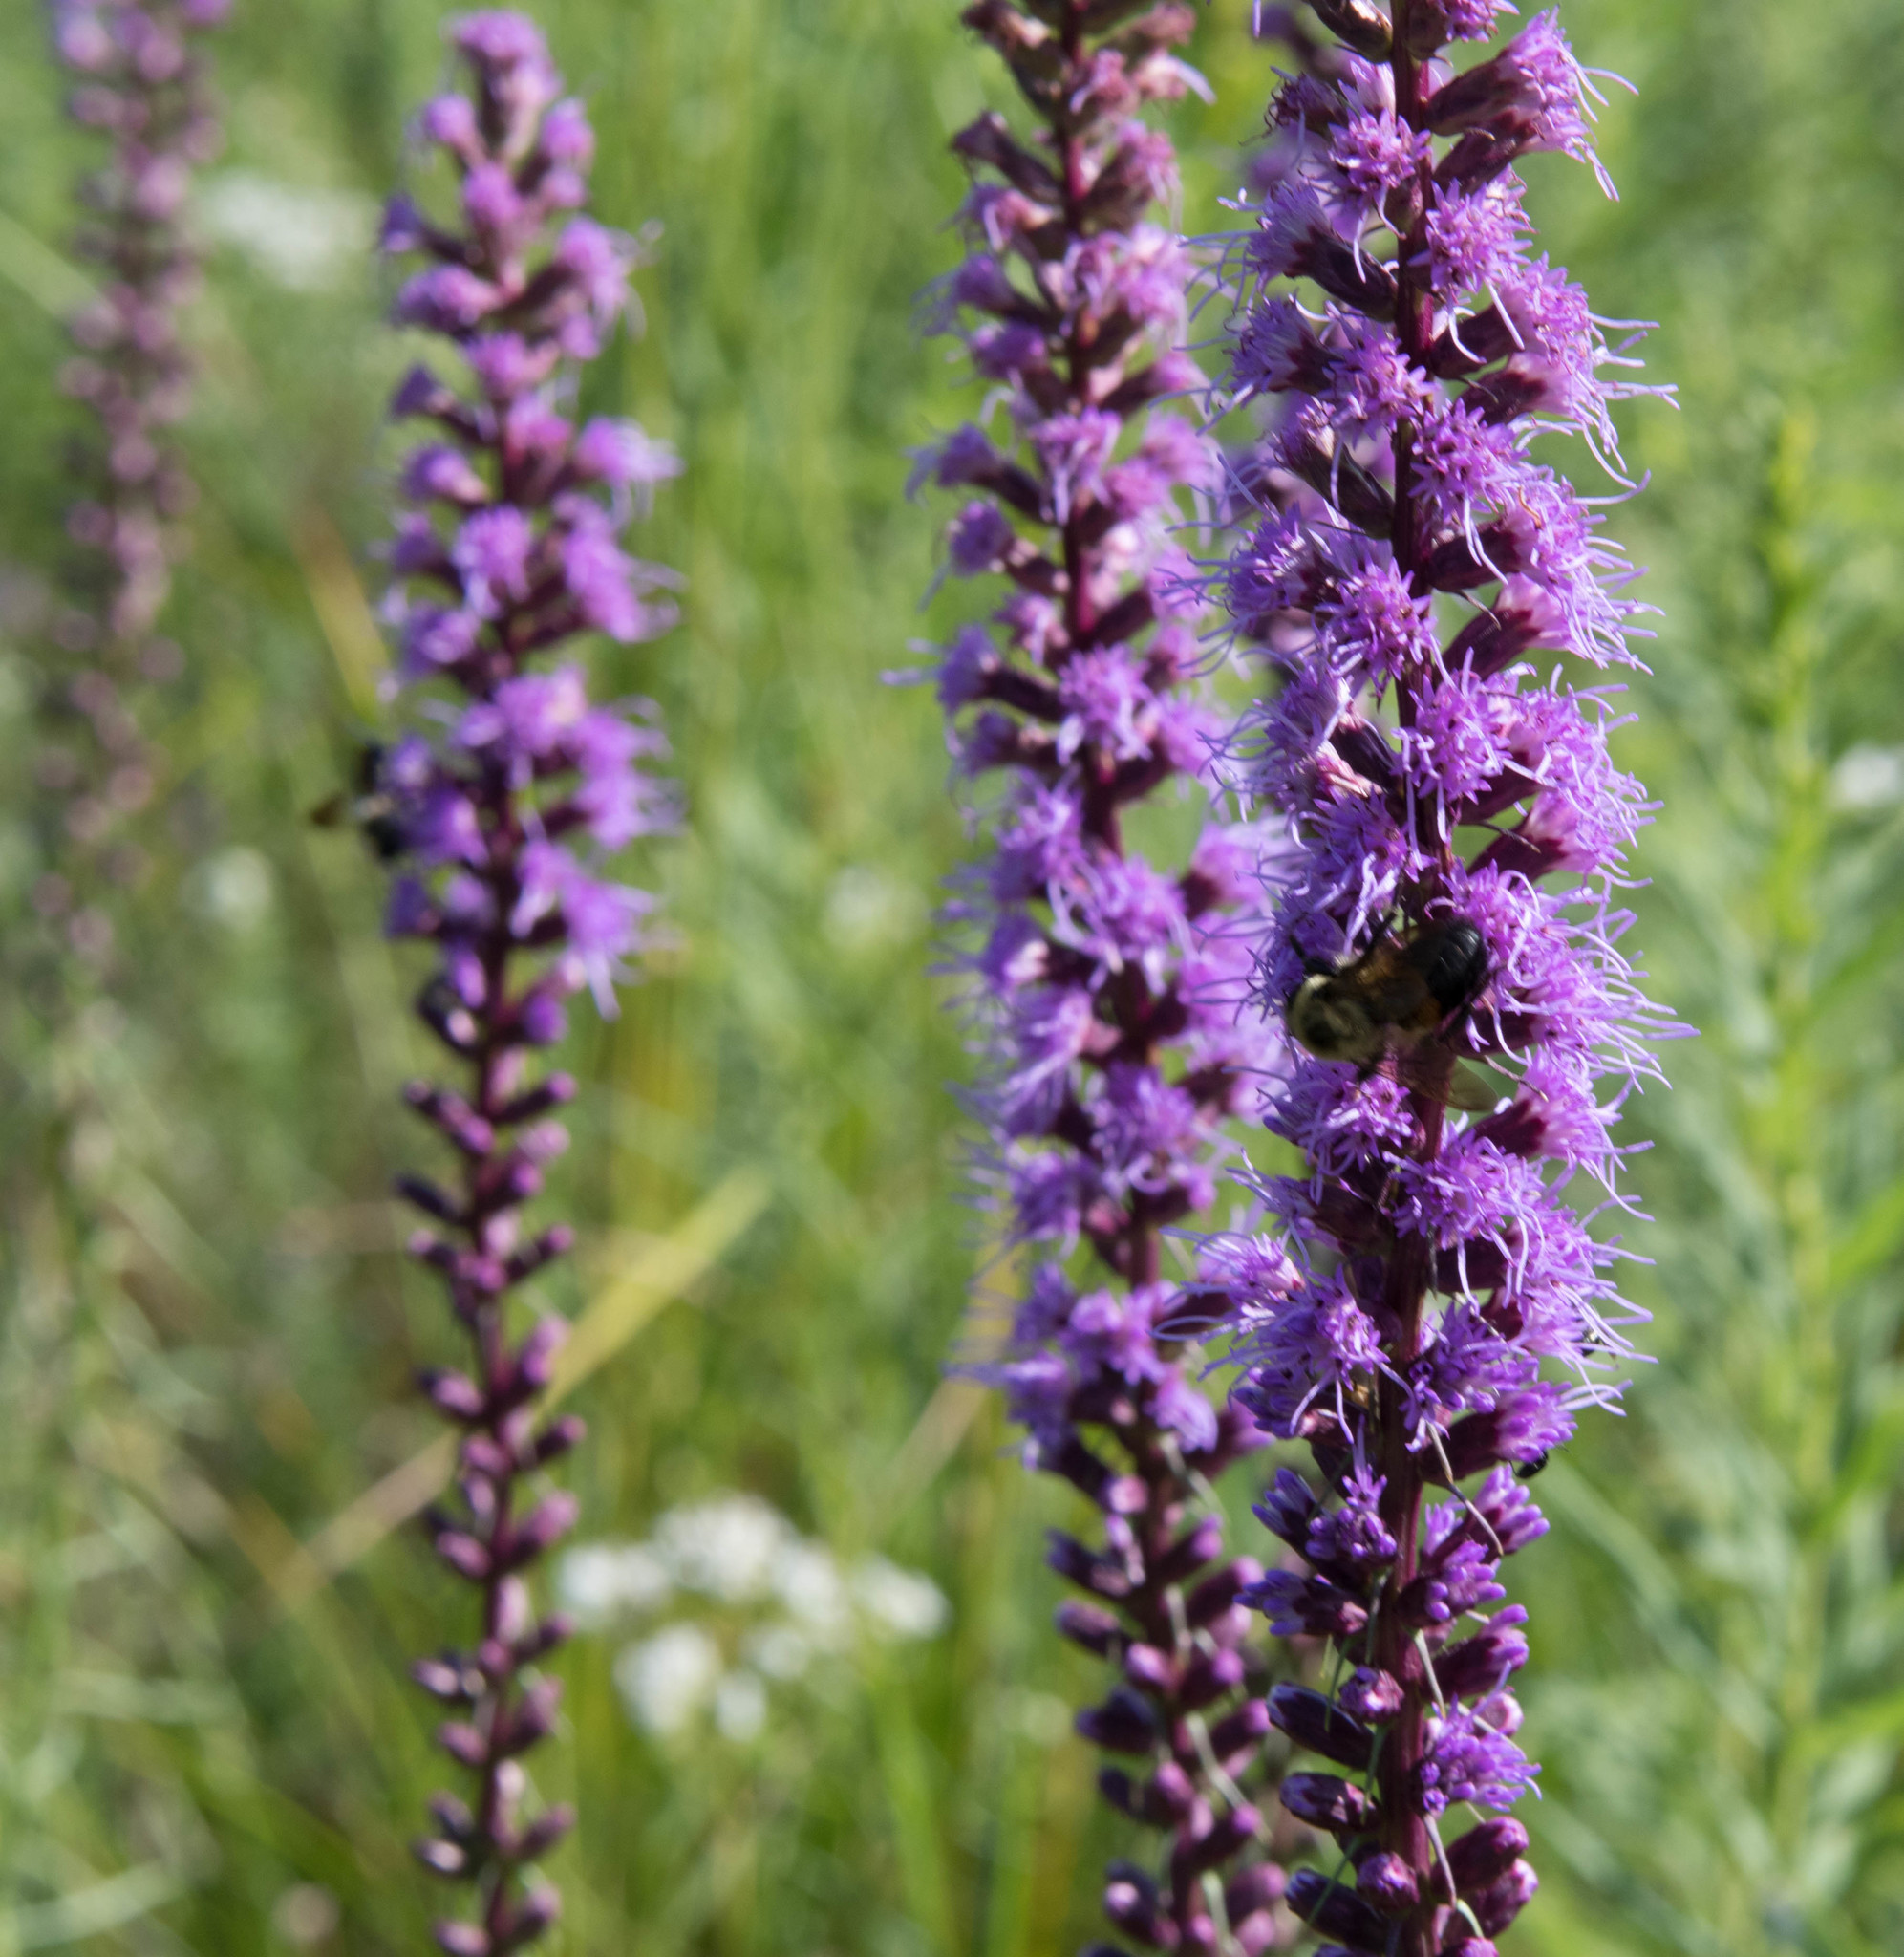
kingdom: Plantae
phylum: Tracheophyta
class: Magnoliopsida
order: Asterales
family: Asteraceae
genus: Liatris
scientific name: Liatris spicata
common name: Florist gayfeather
